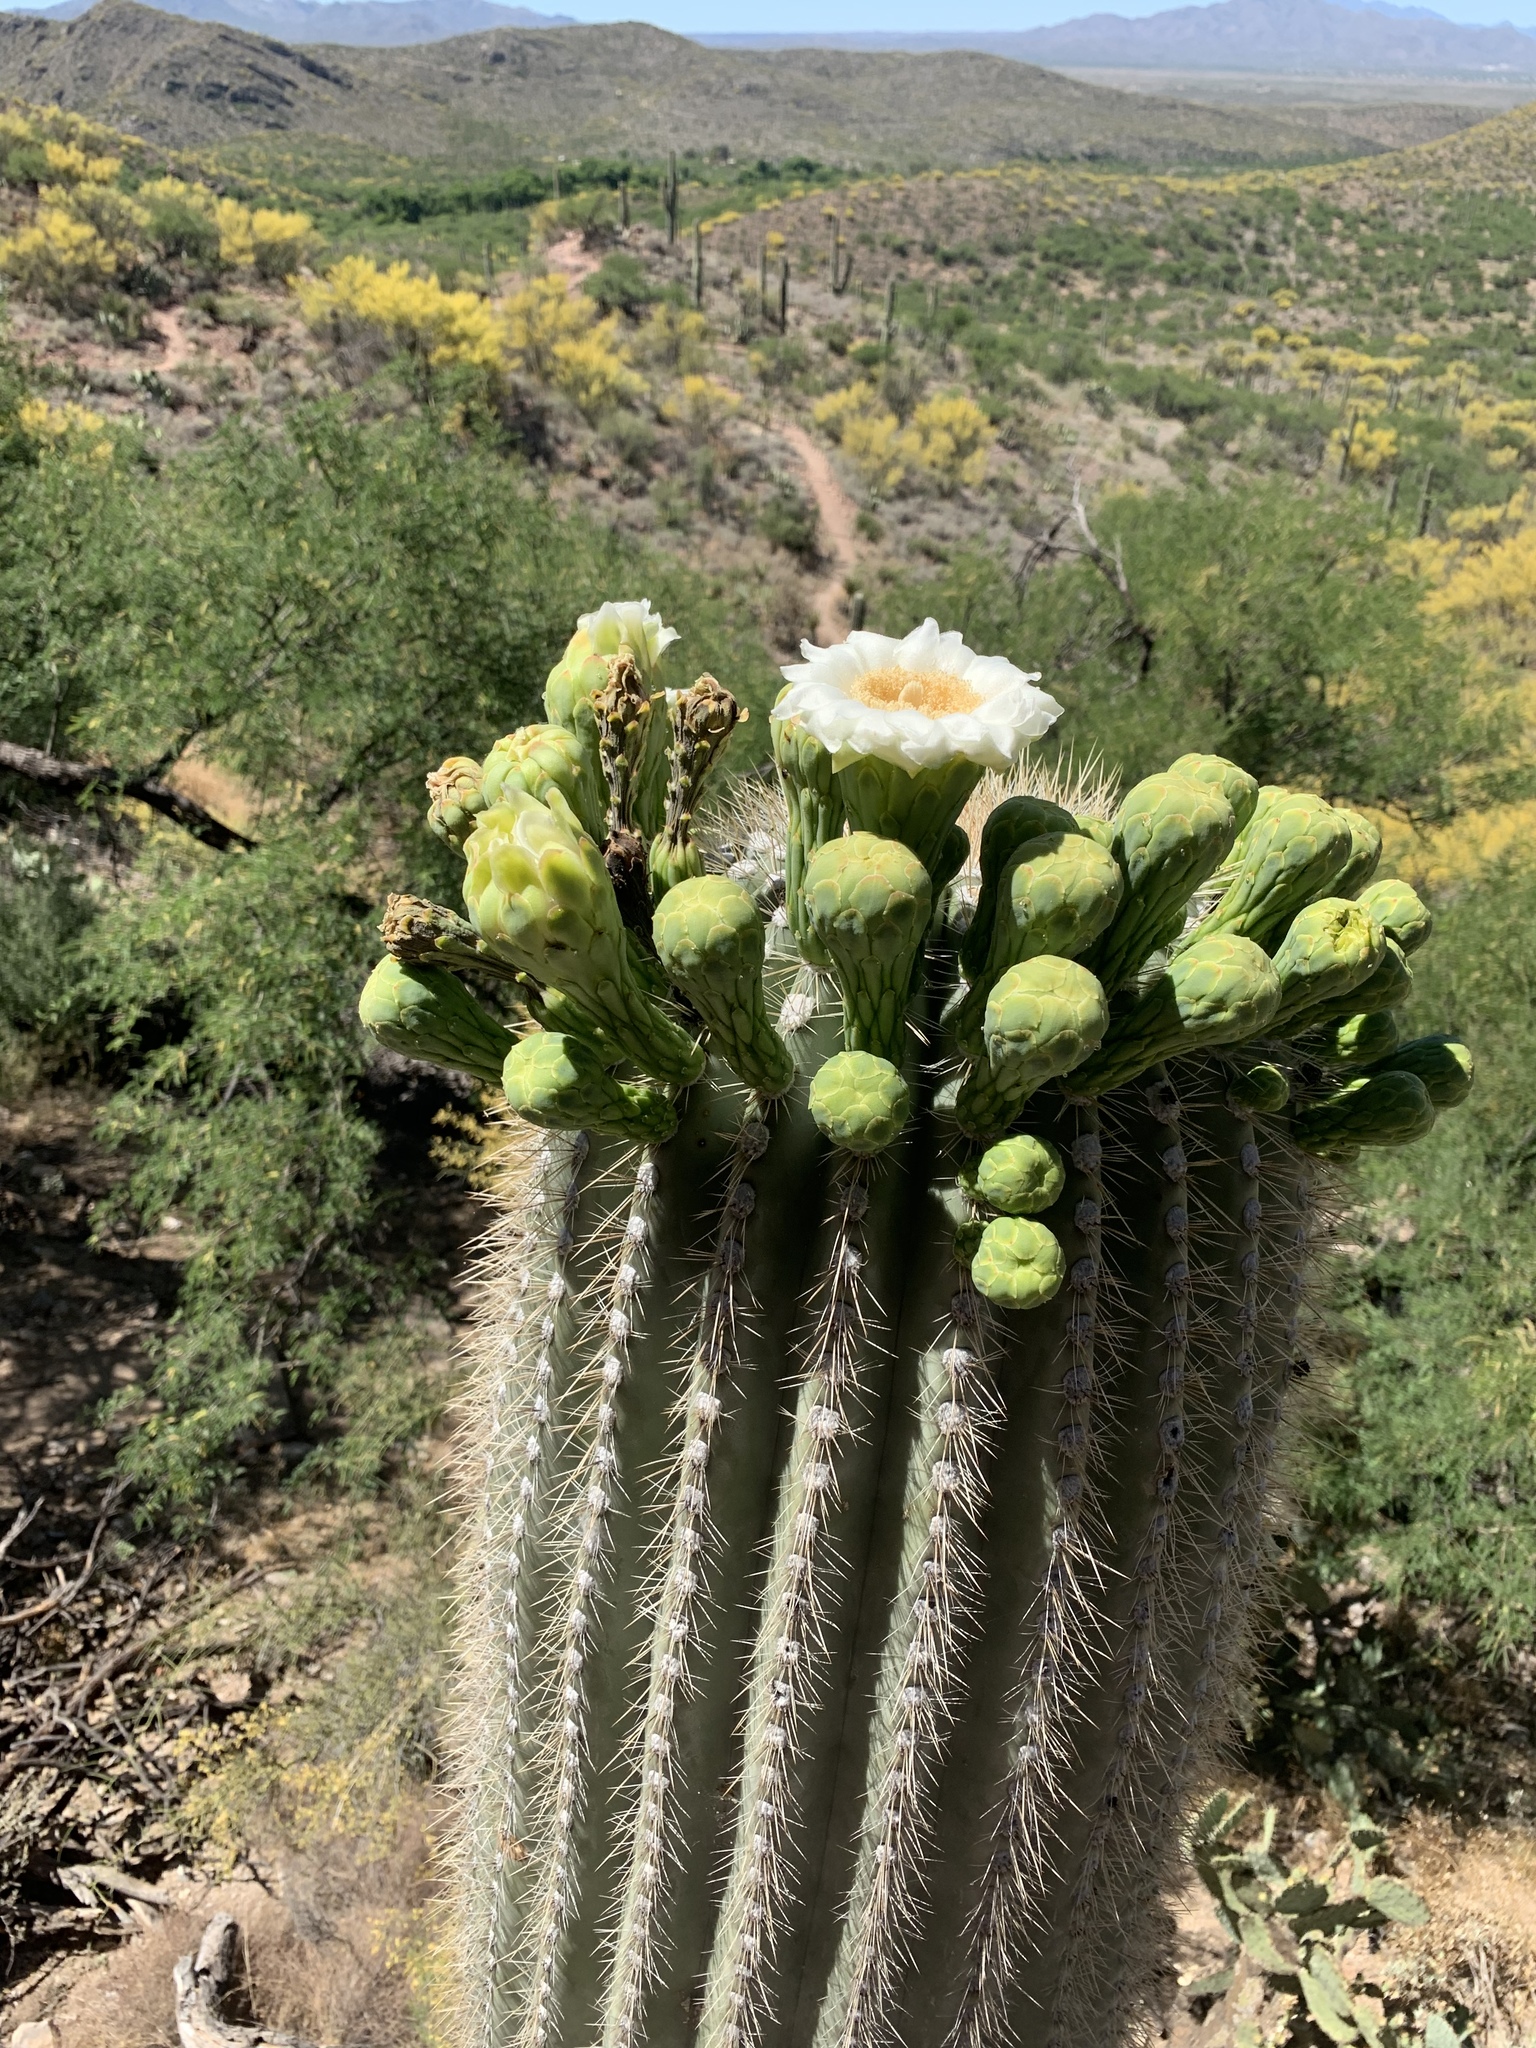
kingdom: Plantae
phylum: Tracheophyta
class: Magnoliopsida
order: Caryophyllales
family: Cactaceae
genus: Carnegiea
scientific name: Carnegiea gigantea
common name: Saguaro
